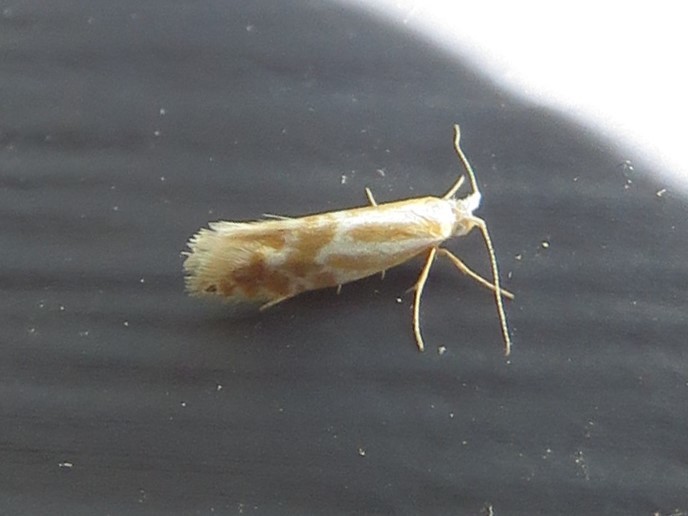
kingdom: Animalia
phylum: Arthropoda
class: Insecta
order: Lepidoptera
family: Argyresthiidae
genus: Argyresthia
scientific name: Argyresthia canadensis
